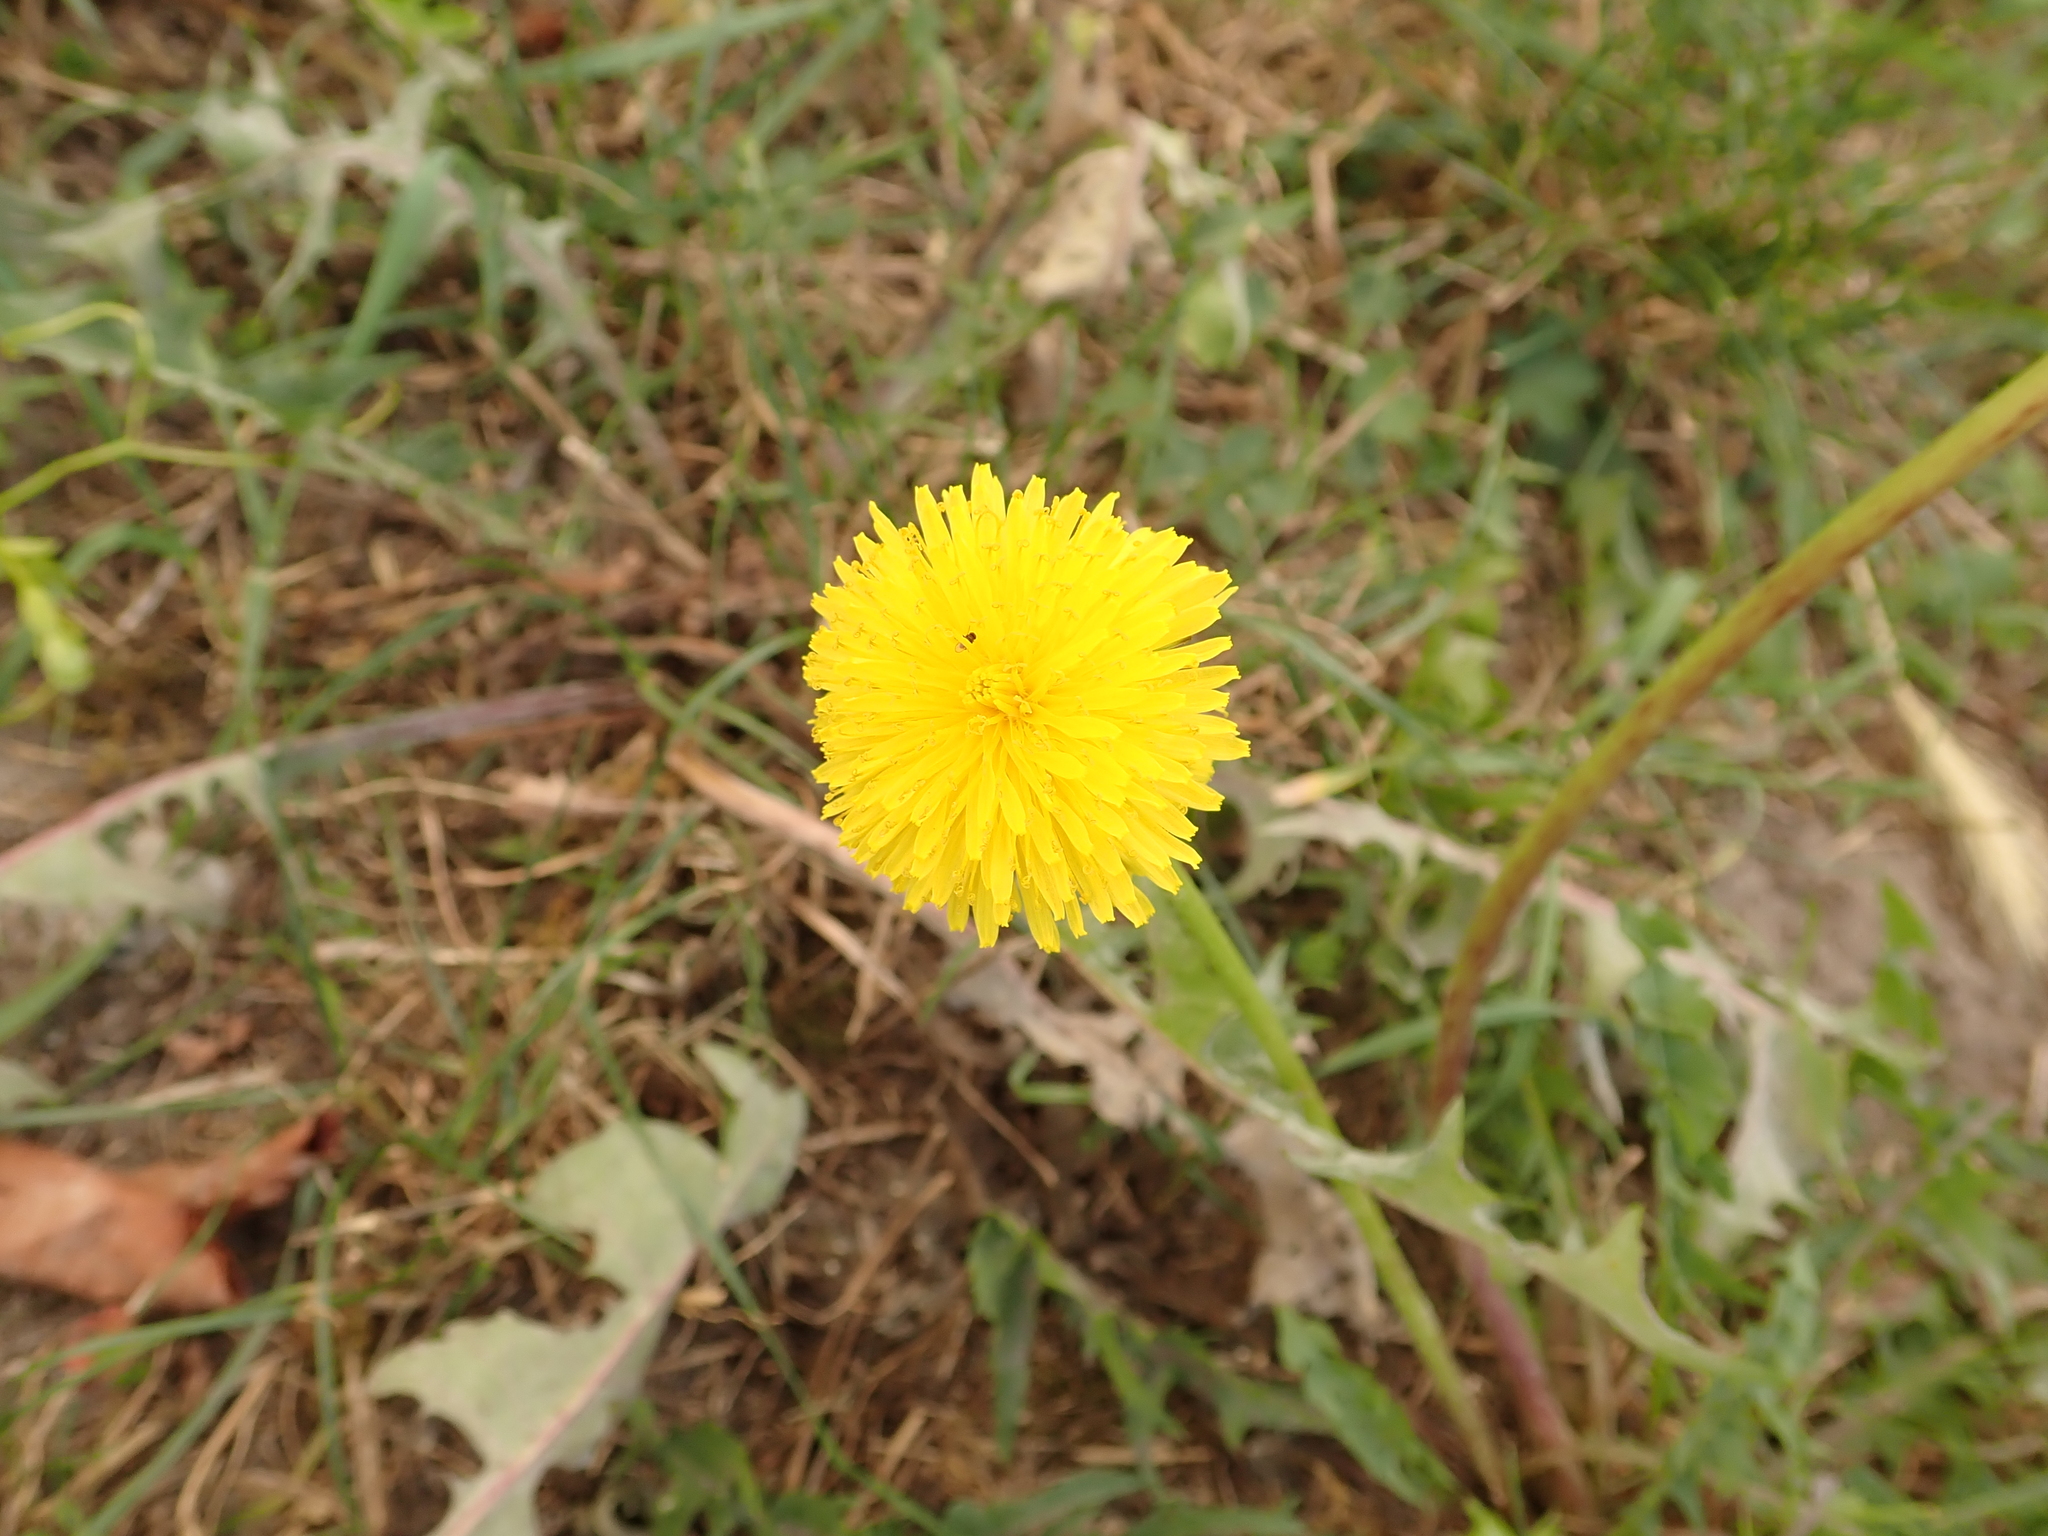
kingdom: Plantae
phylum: Tracheophyta
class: Magnoliopsida
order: Asterales
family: Asteraceae
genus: Taraxacum
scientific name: Taraxacum officinale
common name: Common dandelion
